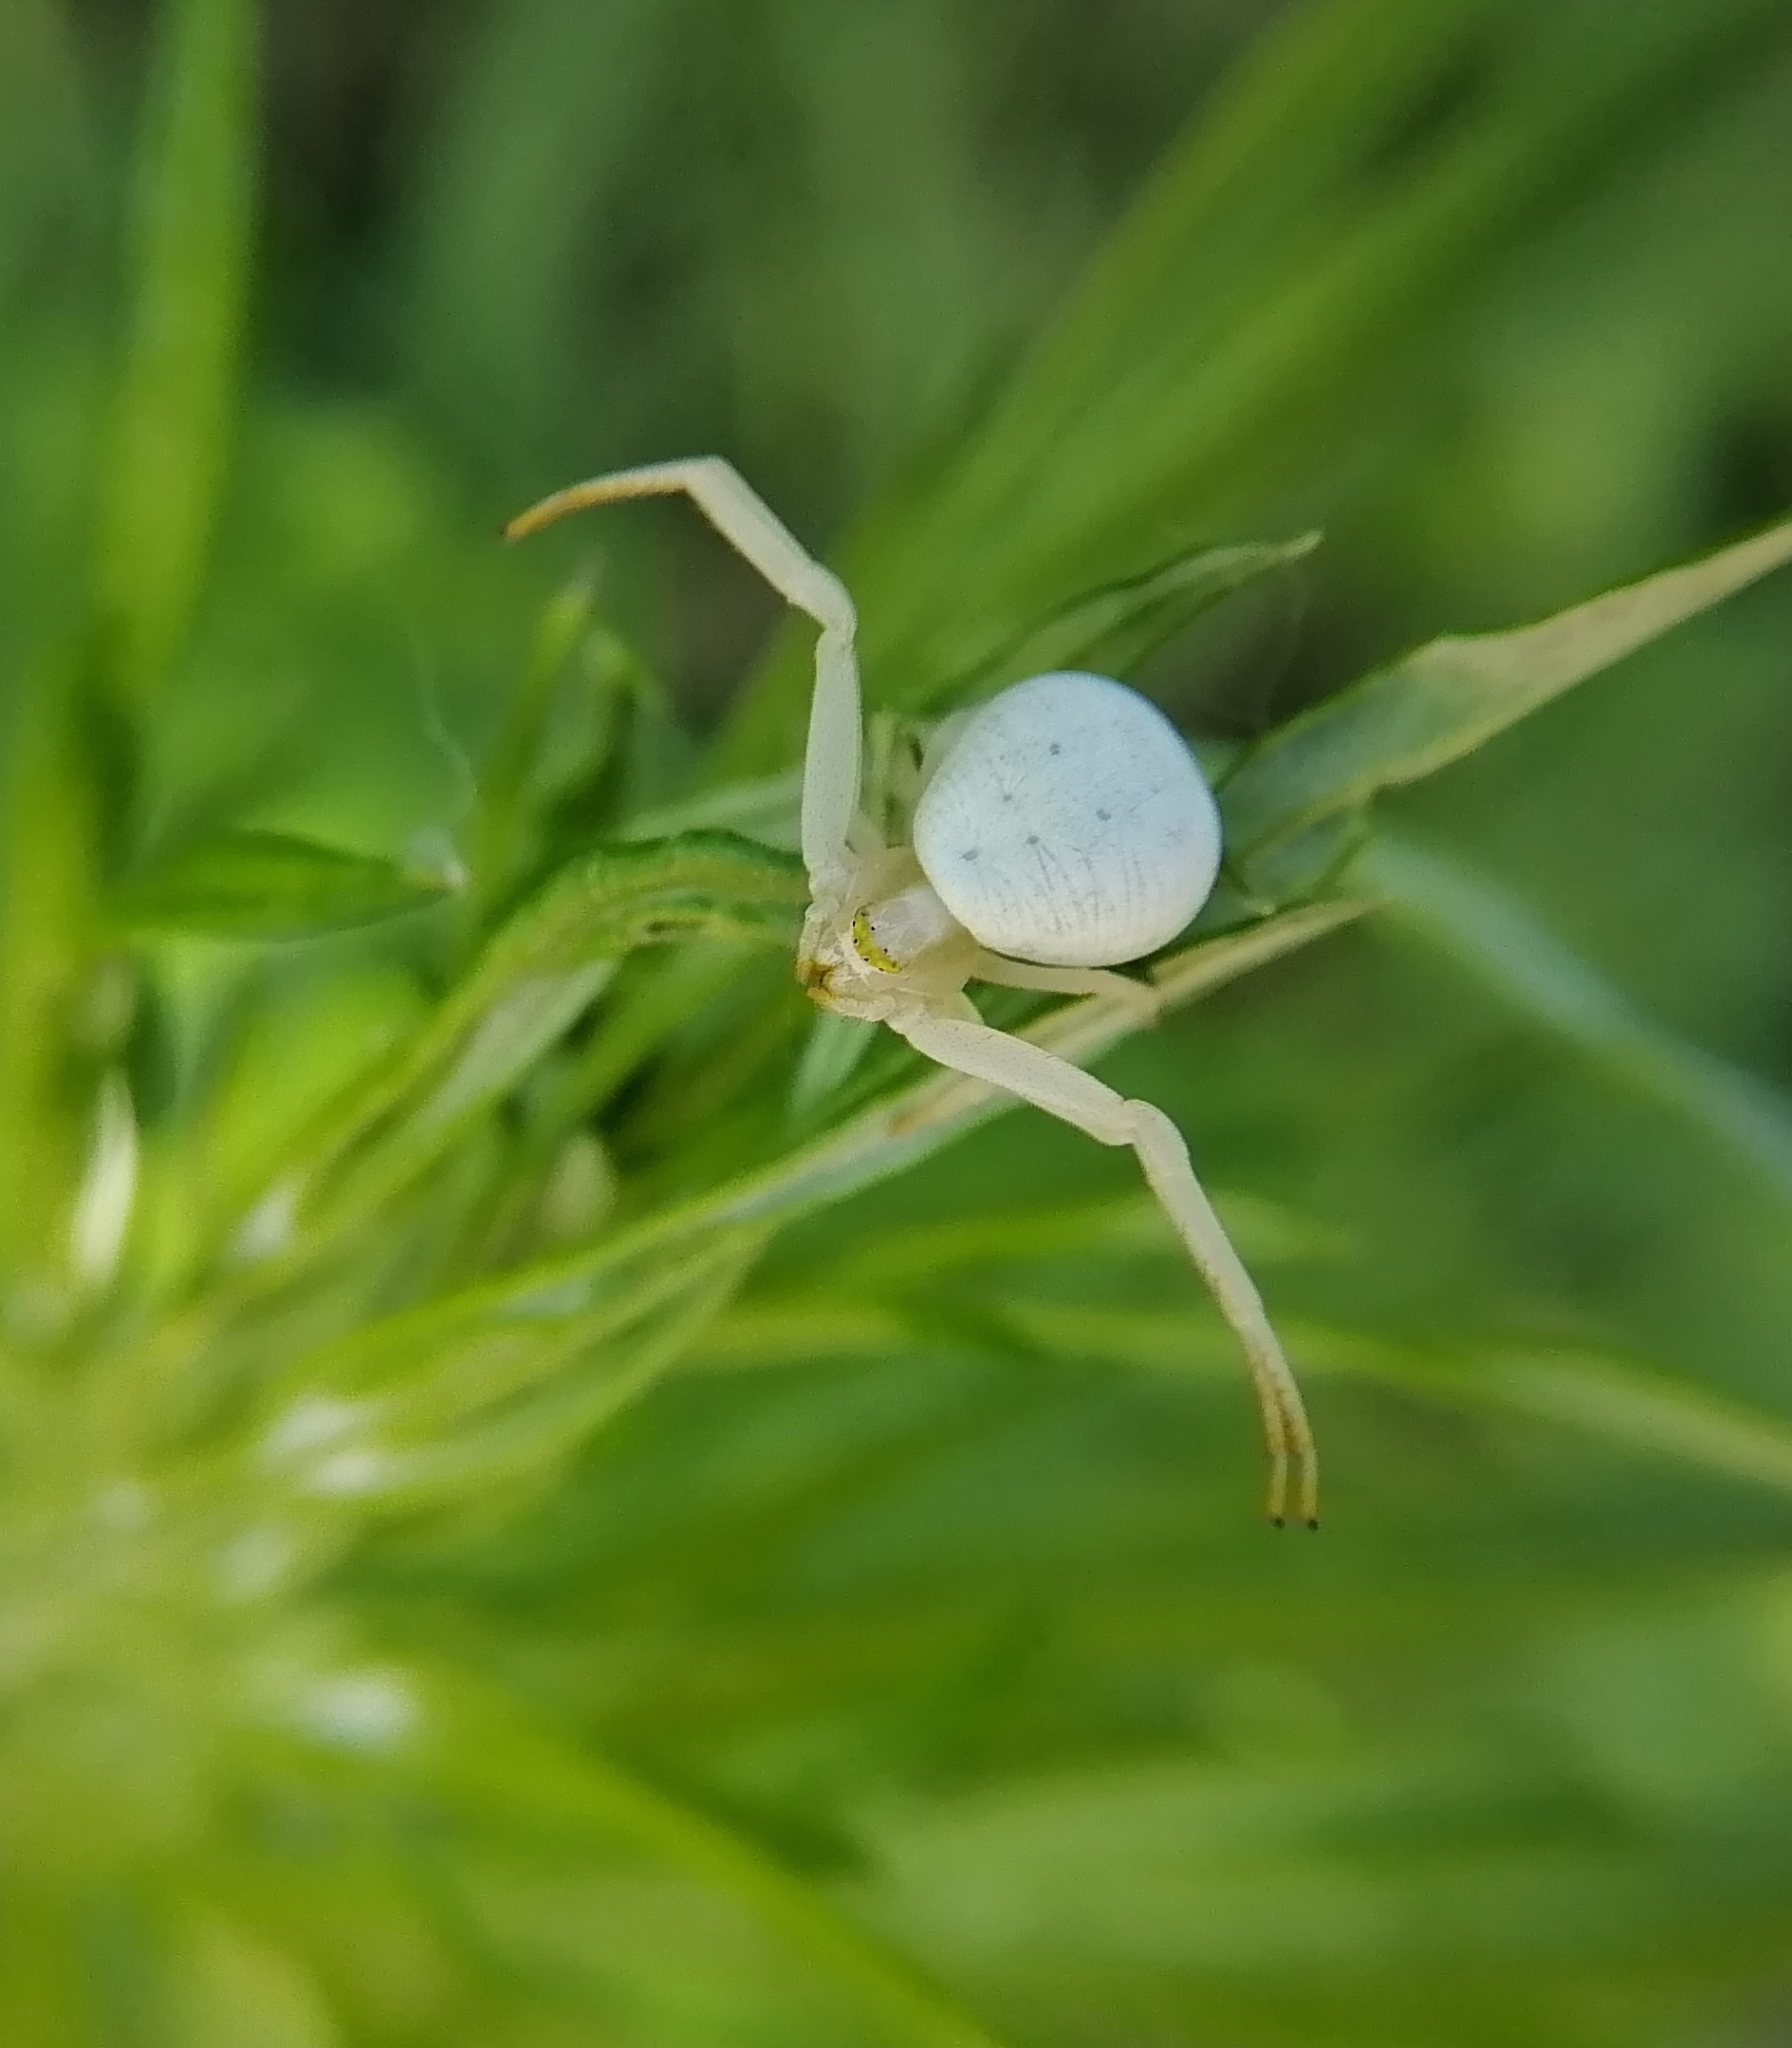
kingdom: Animalia
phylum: Arthropoda
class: Arachnida
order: Araneae
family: Thomisidae
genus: Misumena
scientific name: Misumena vatia
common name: Goldenrod crab spider
